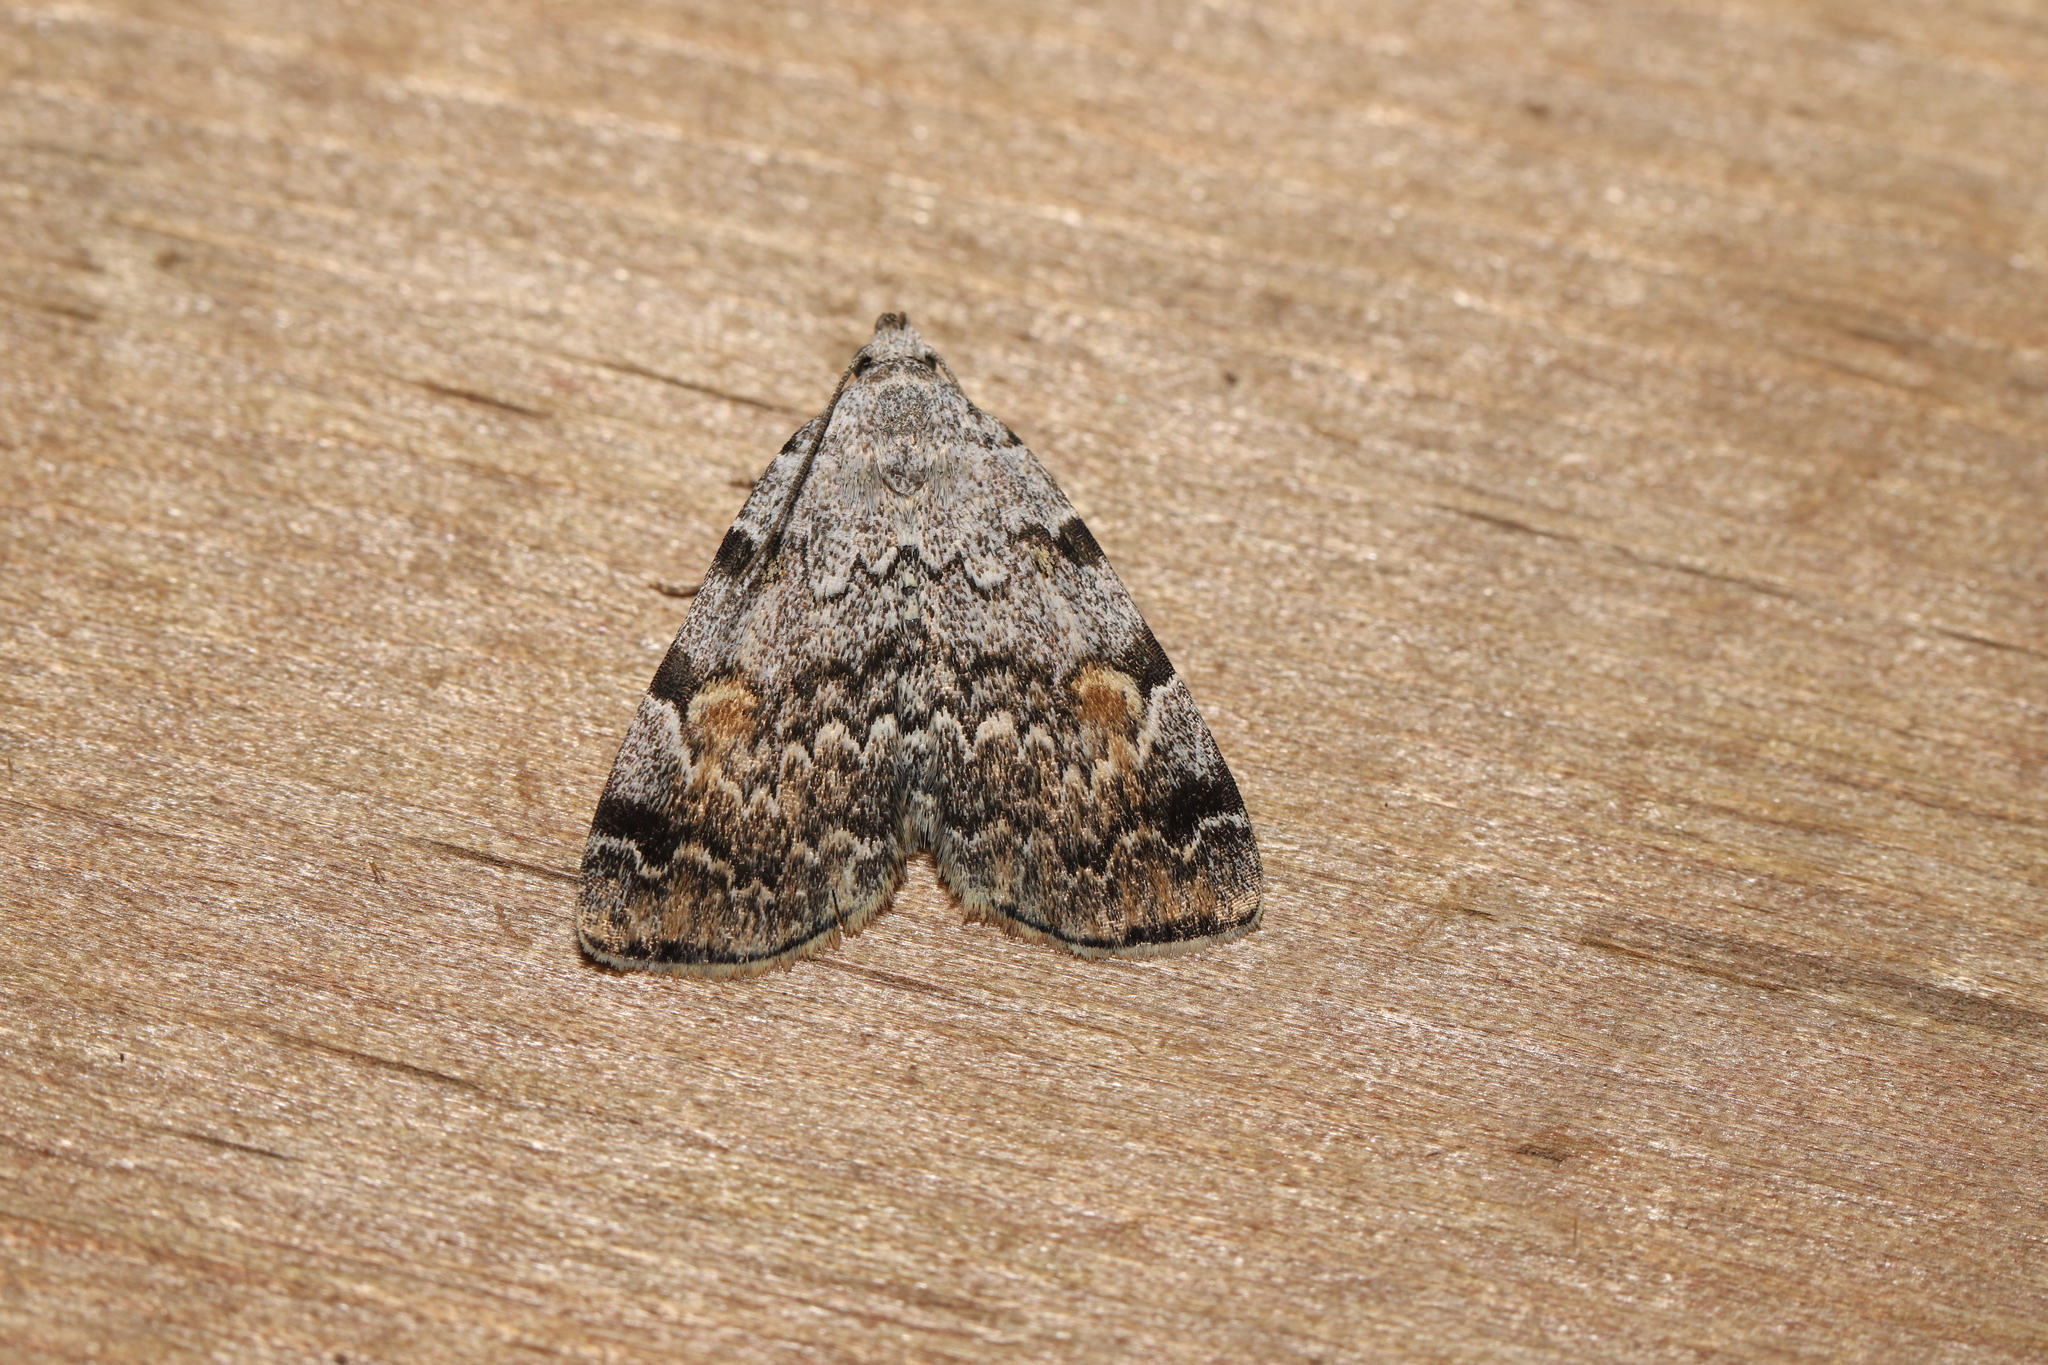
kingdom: Animalia
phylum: Arthropoda
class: Insecta
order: Lepidoptera
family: Erebidae
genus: Idia
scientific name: Idia americalis
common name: American idia moth
